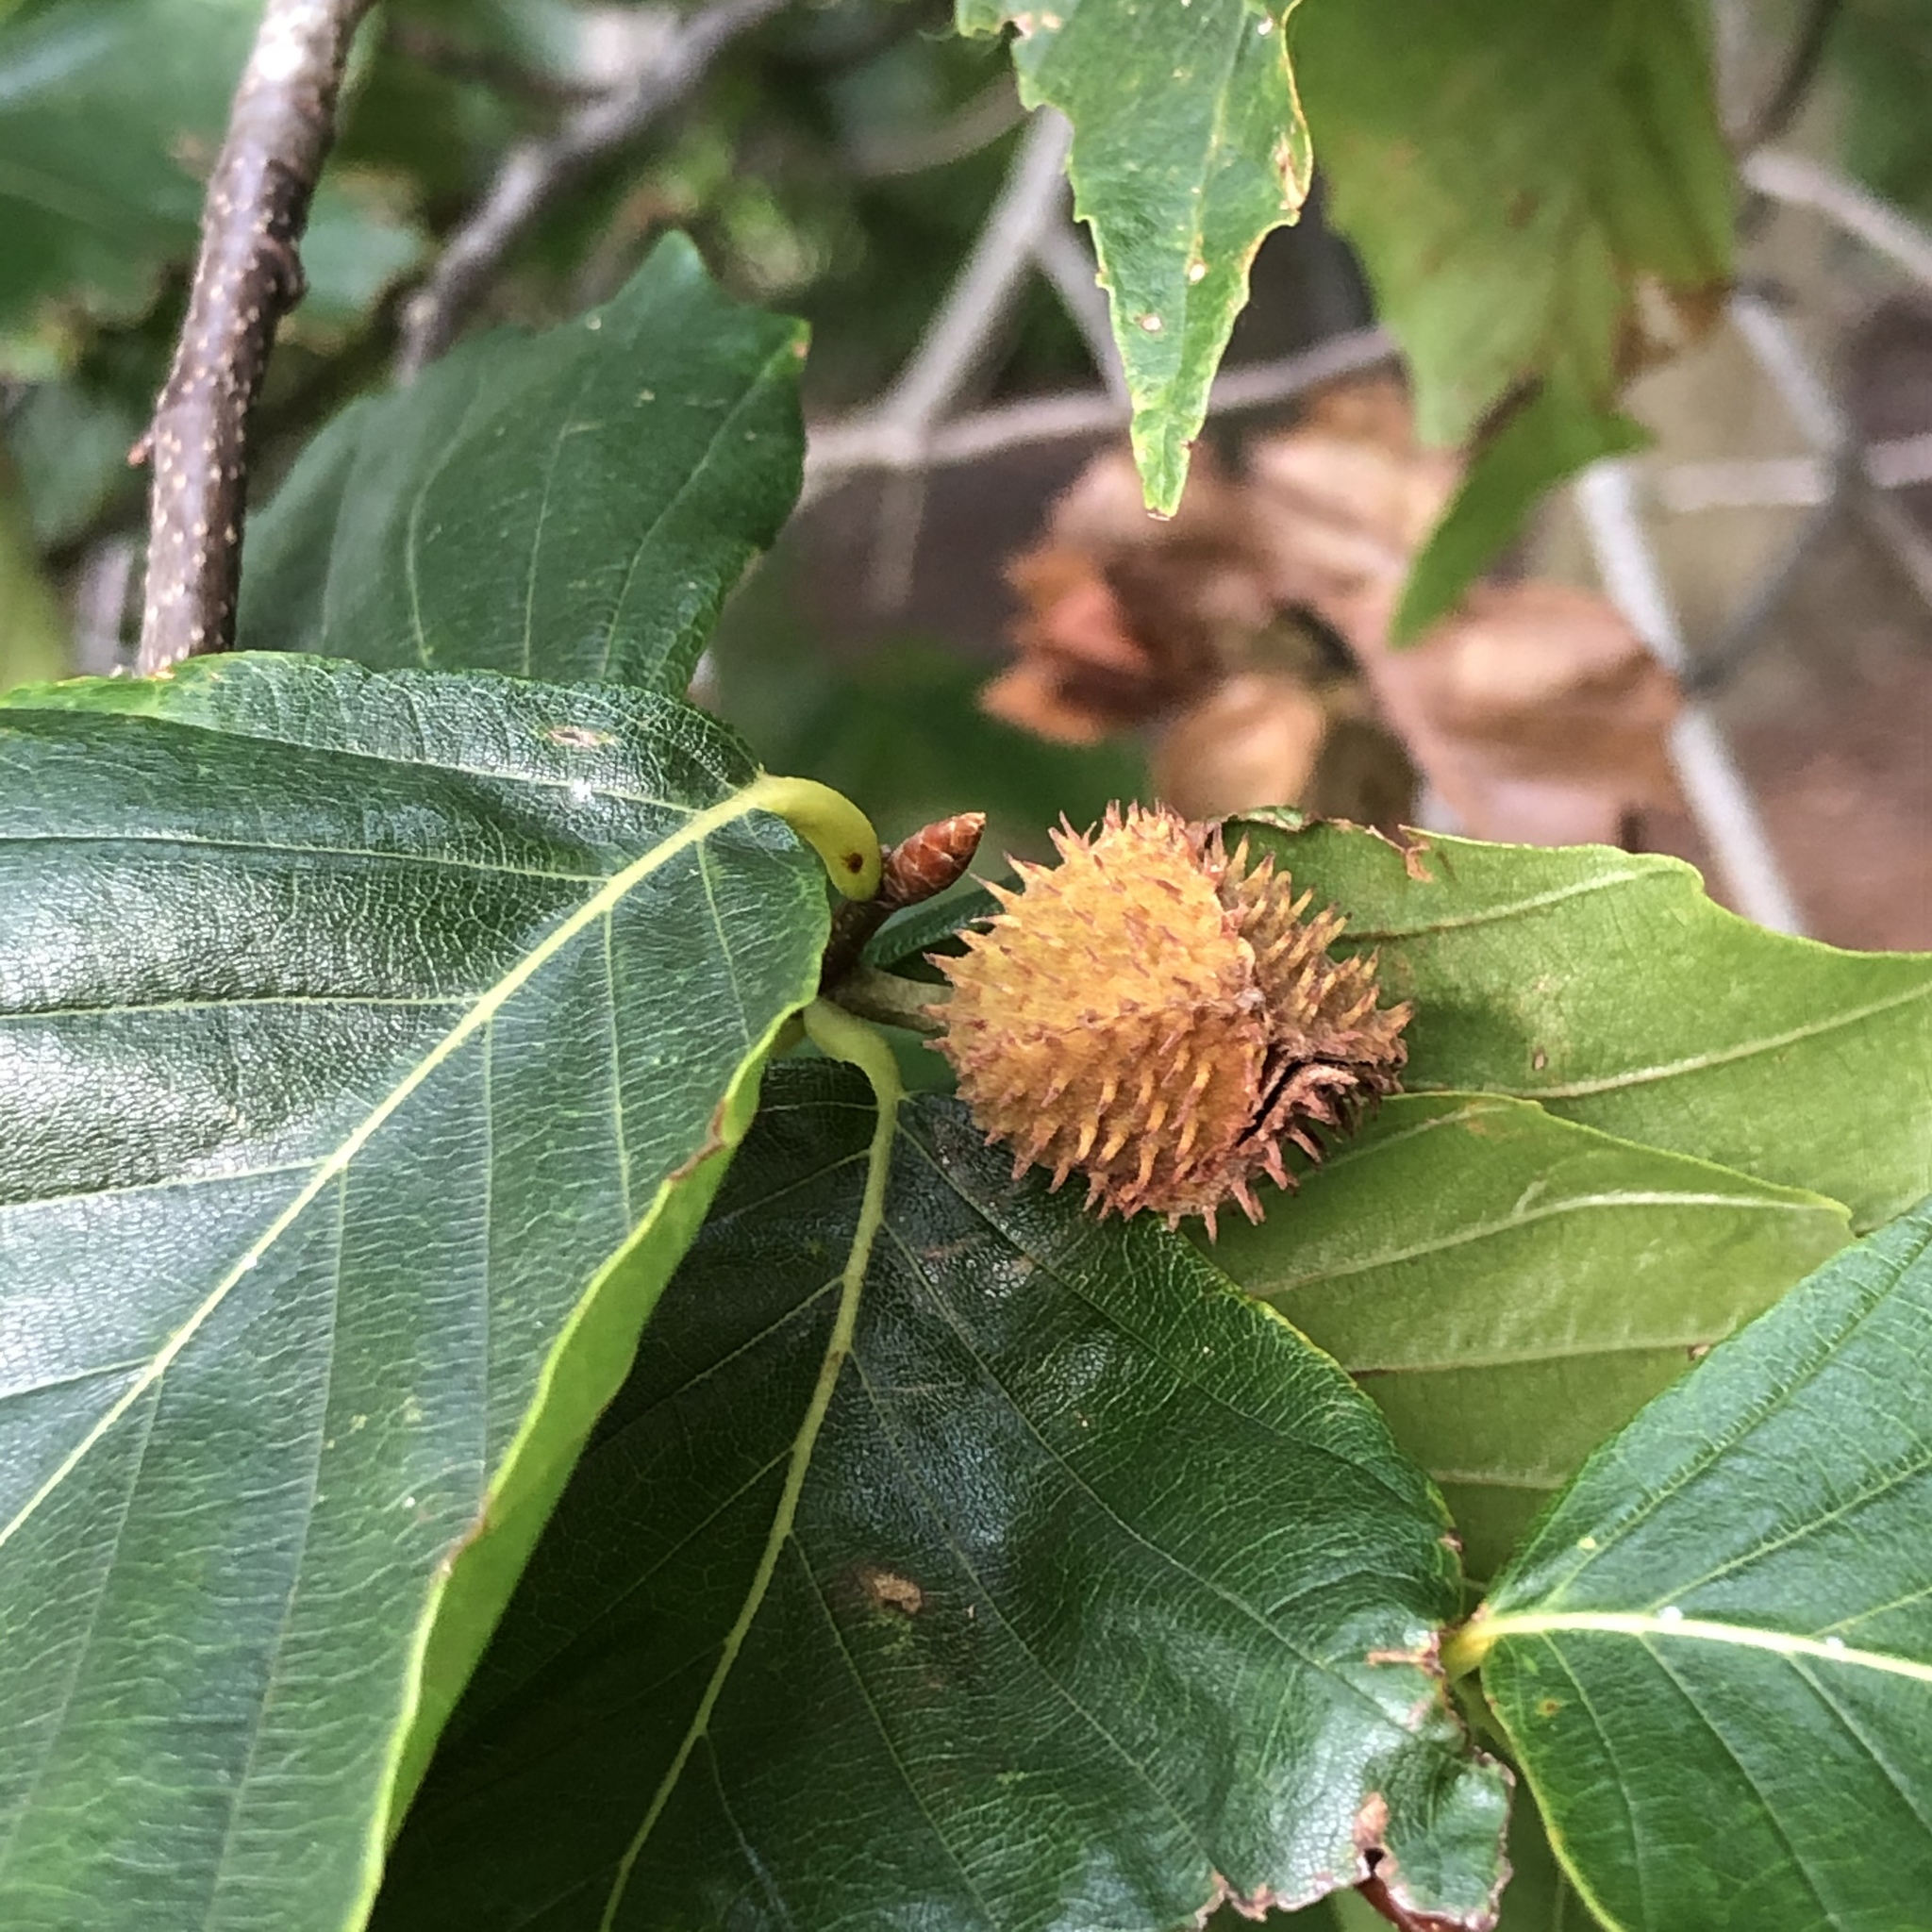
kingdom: Plantae
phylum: Tracheophyta
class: Magnoliopsida
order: Fagales
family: Fagaceae
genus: Fagus
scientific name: Fagus grandifolia
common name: American beech
